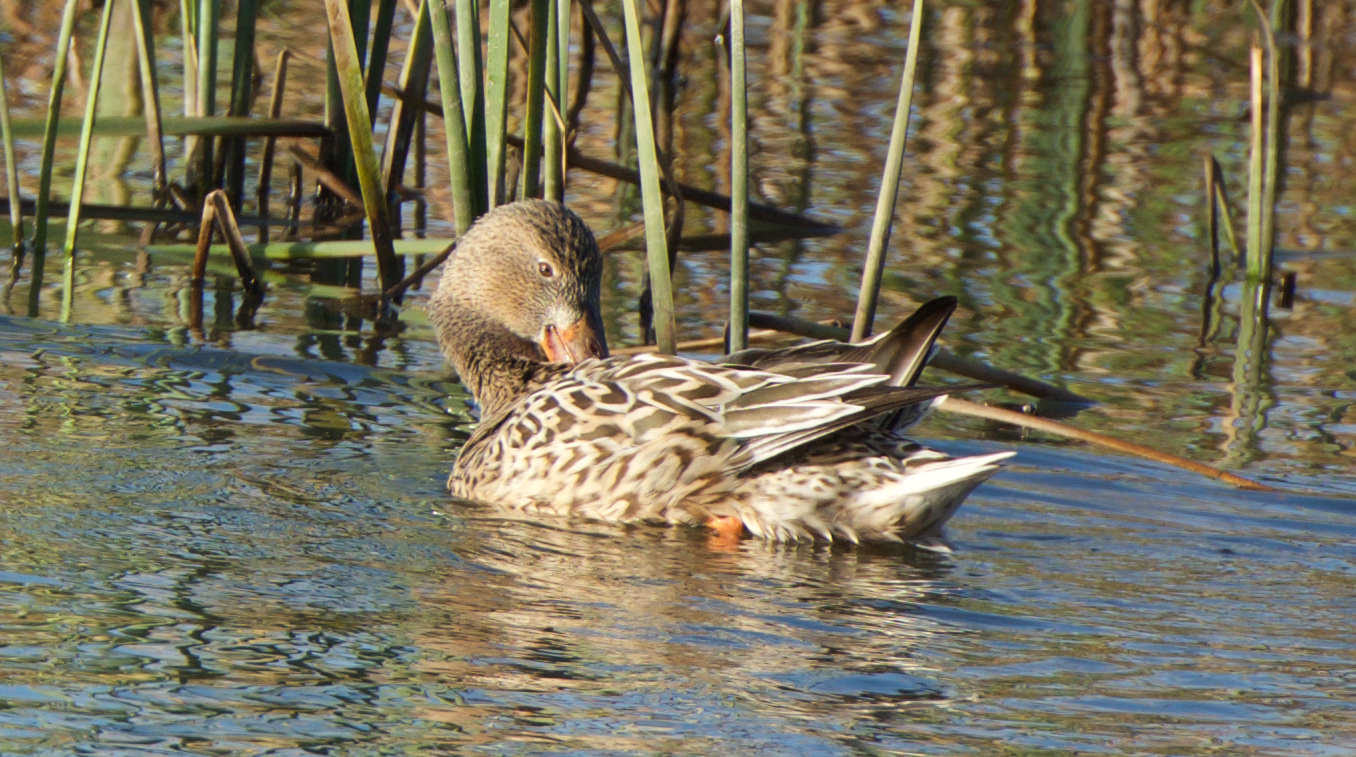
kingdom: Animalia
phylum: Chordata
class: Aves
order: Anseriformes
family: Anatidae
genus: Spatula
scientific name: Spatula clypeata
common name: Northern shoveler
